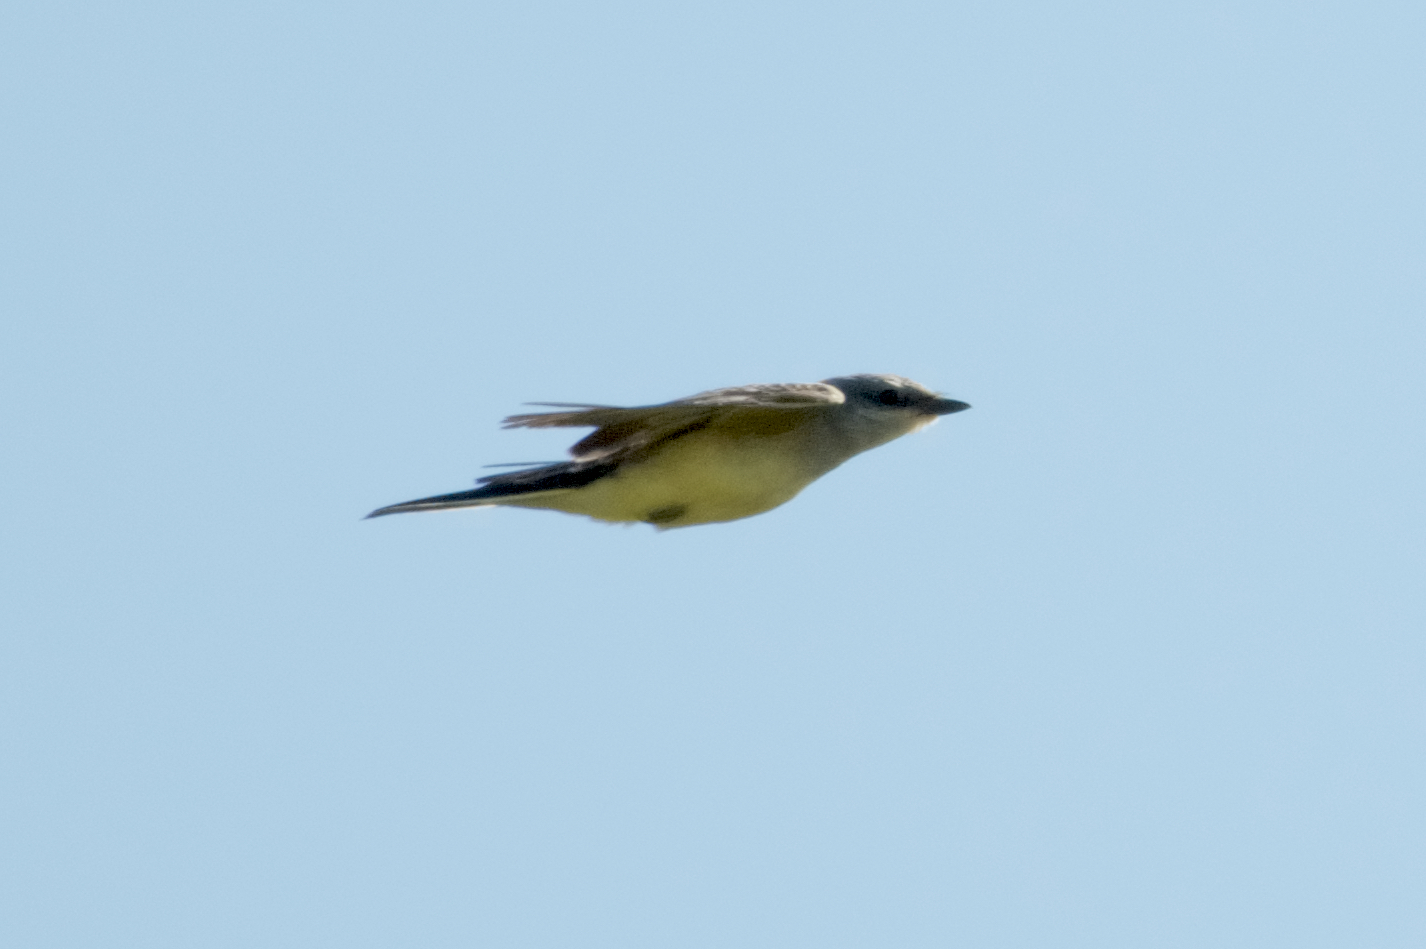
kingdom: Animalia
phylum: Chordata
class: Aves
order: Passeriformes
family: Tyrannidae
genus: Tyrannus
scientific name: Tyrannus verticalis
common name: Western kingbird
